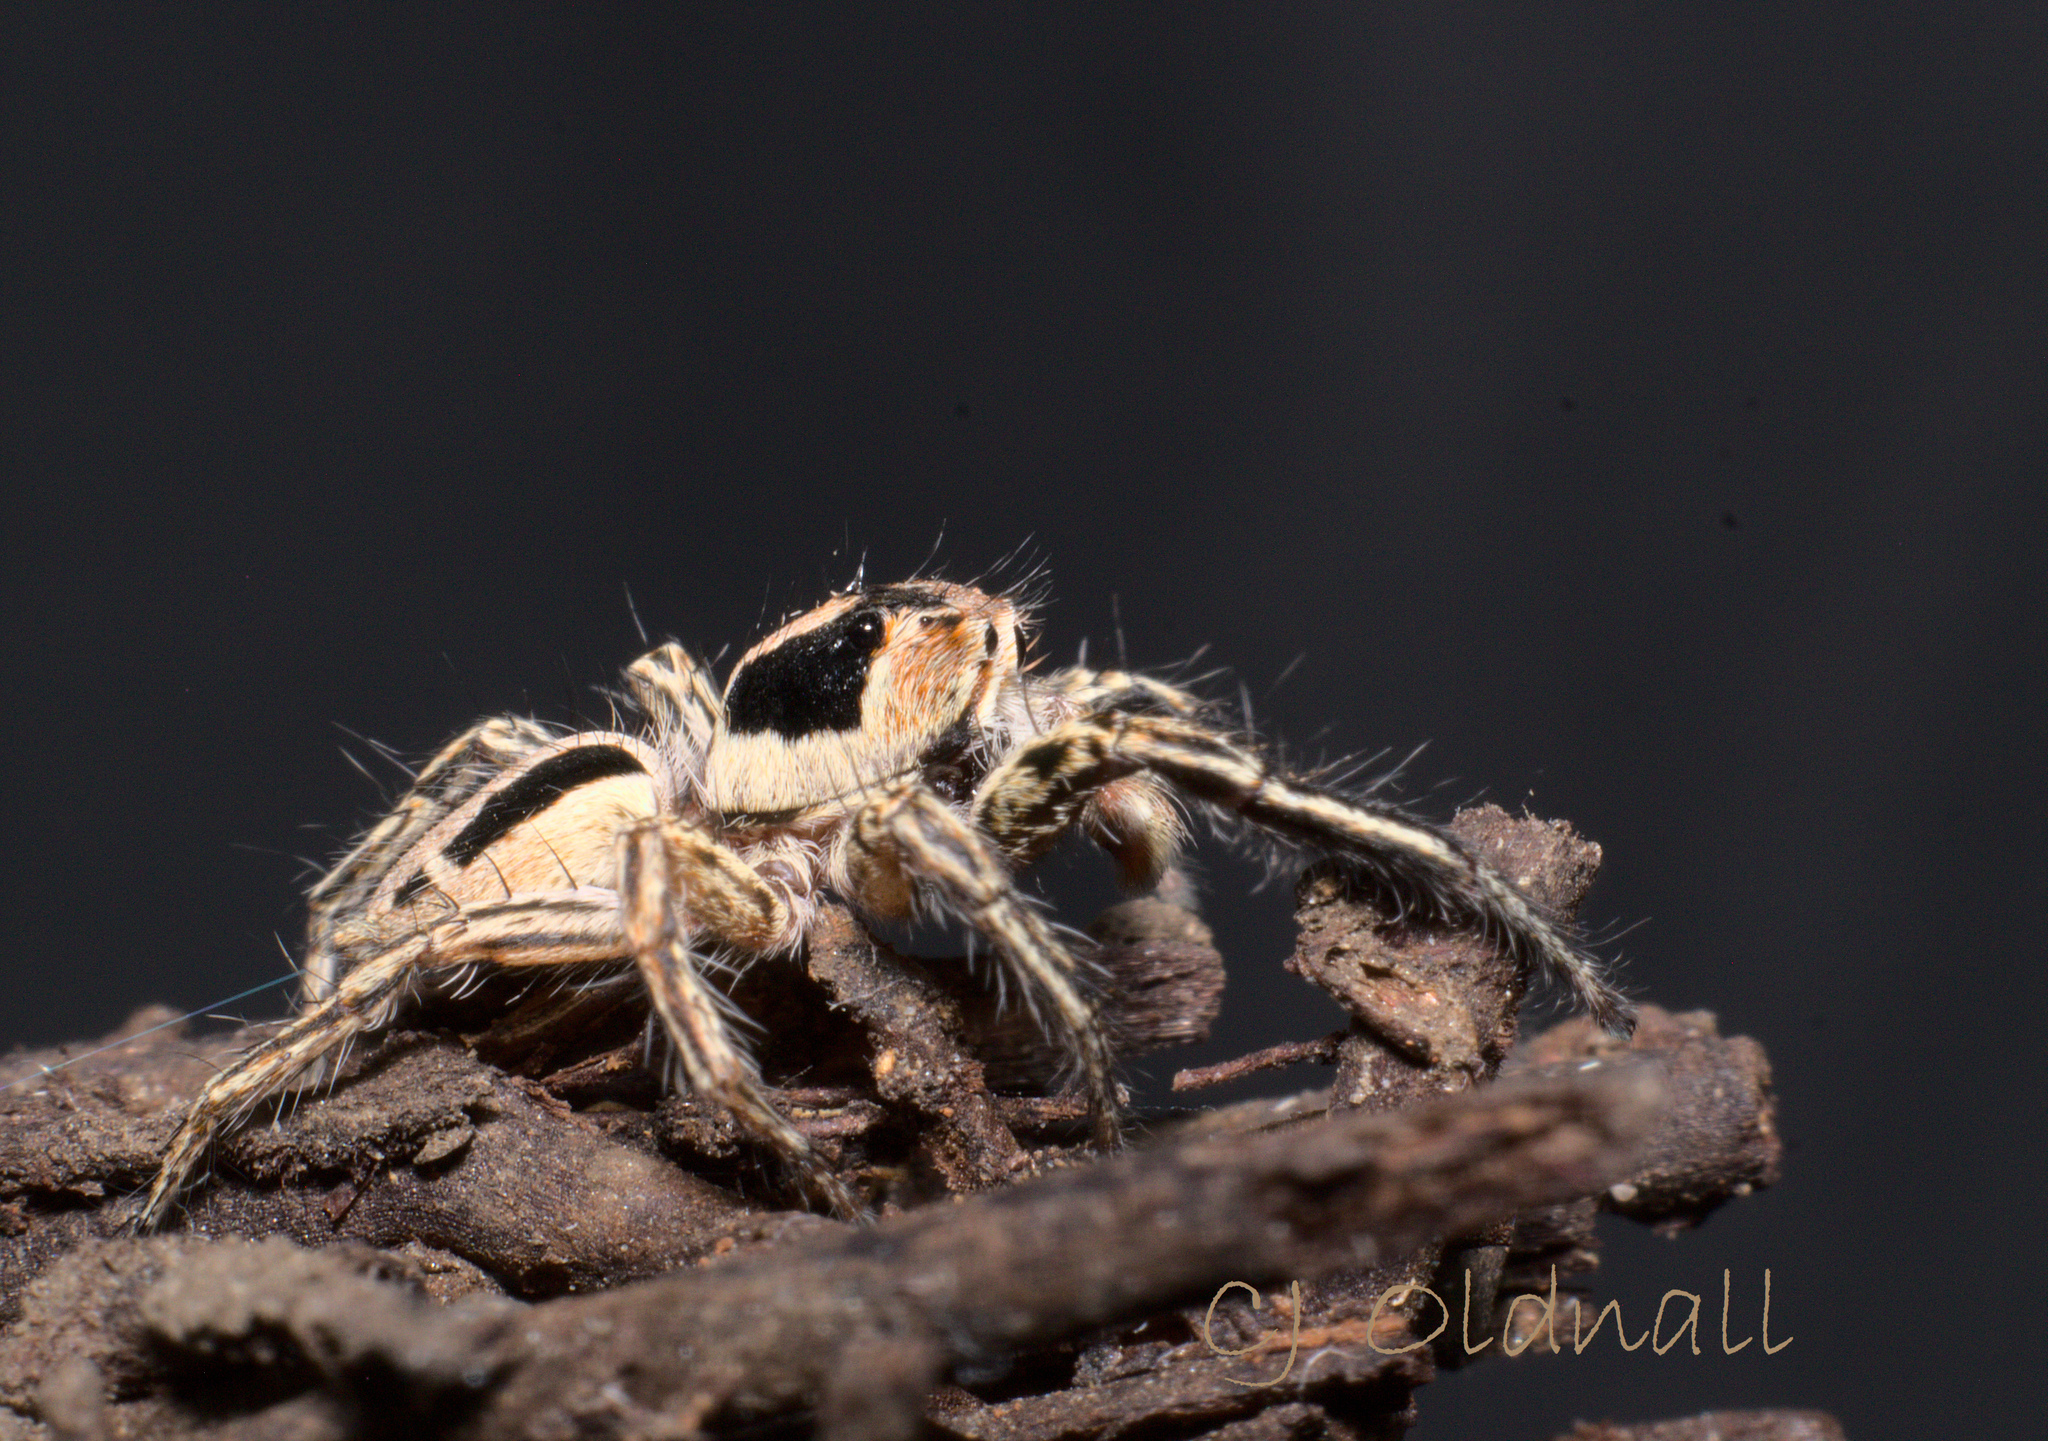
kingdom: Animalia
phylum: Arthropoda
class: Arachnida
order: Araneae
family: Salticidae
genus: Plexippus
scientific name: Plexippus petersi
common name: Jumping spider
